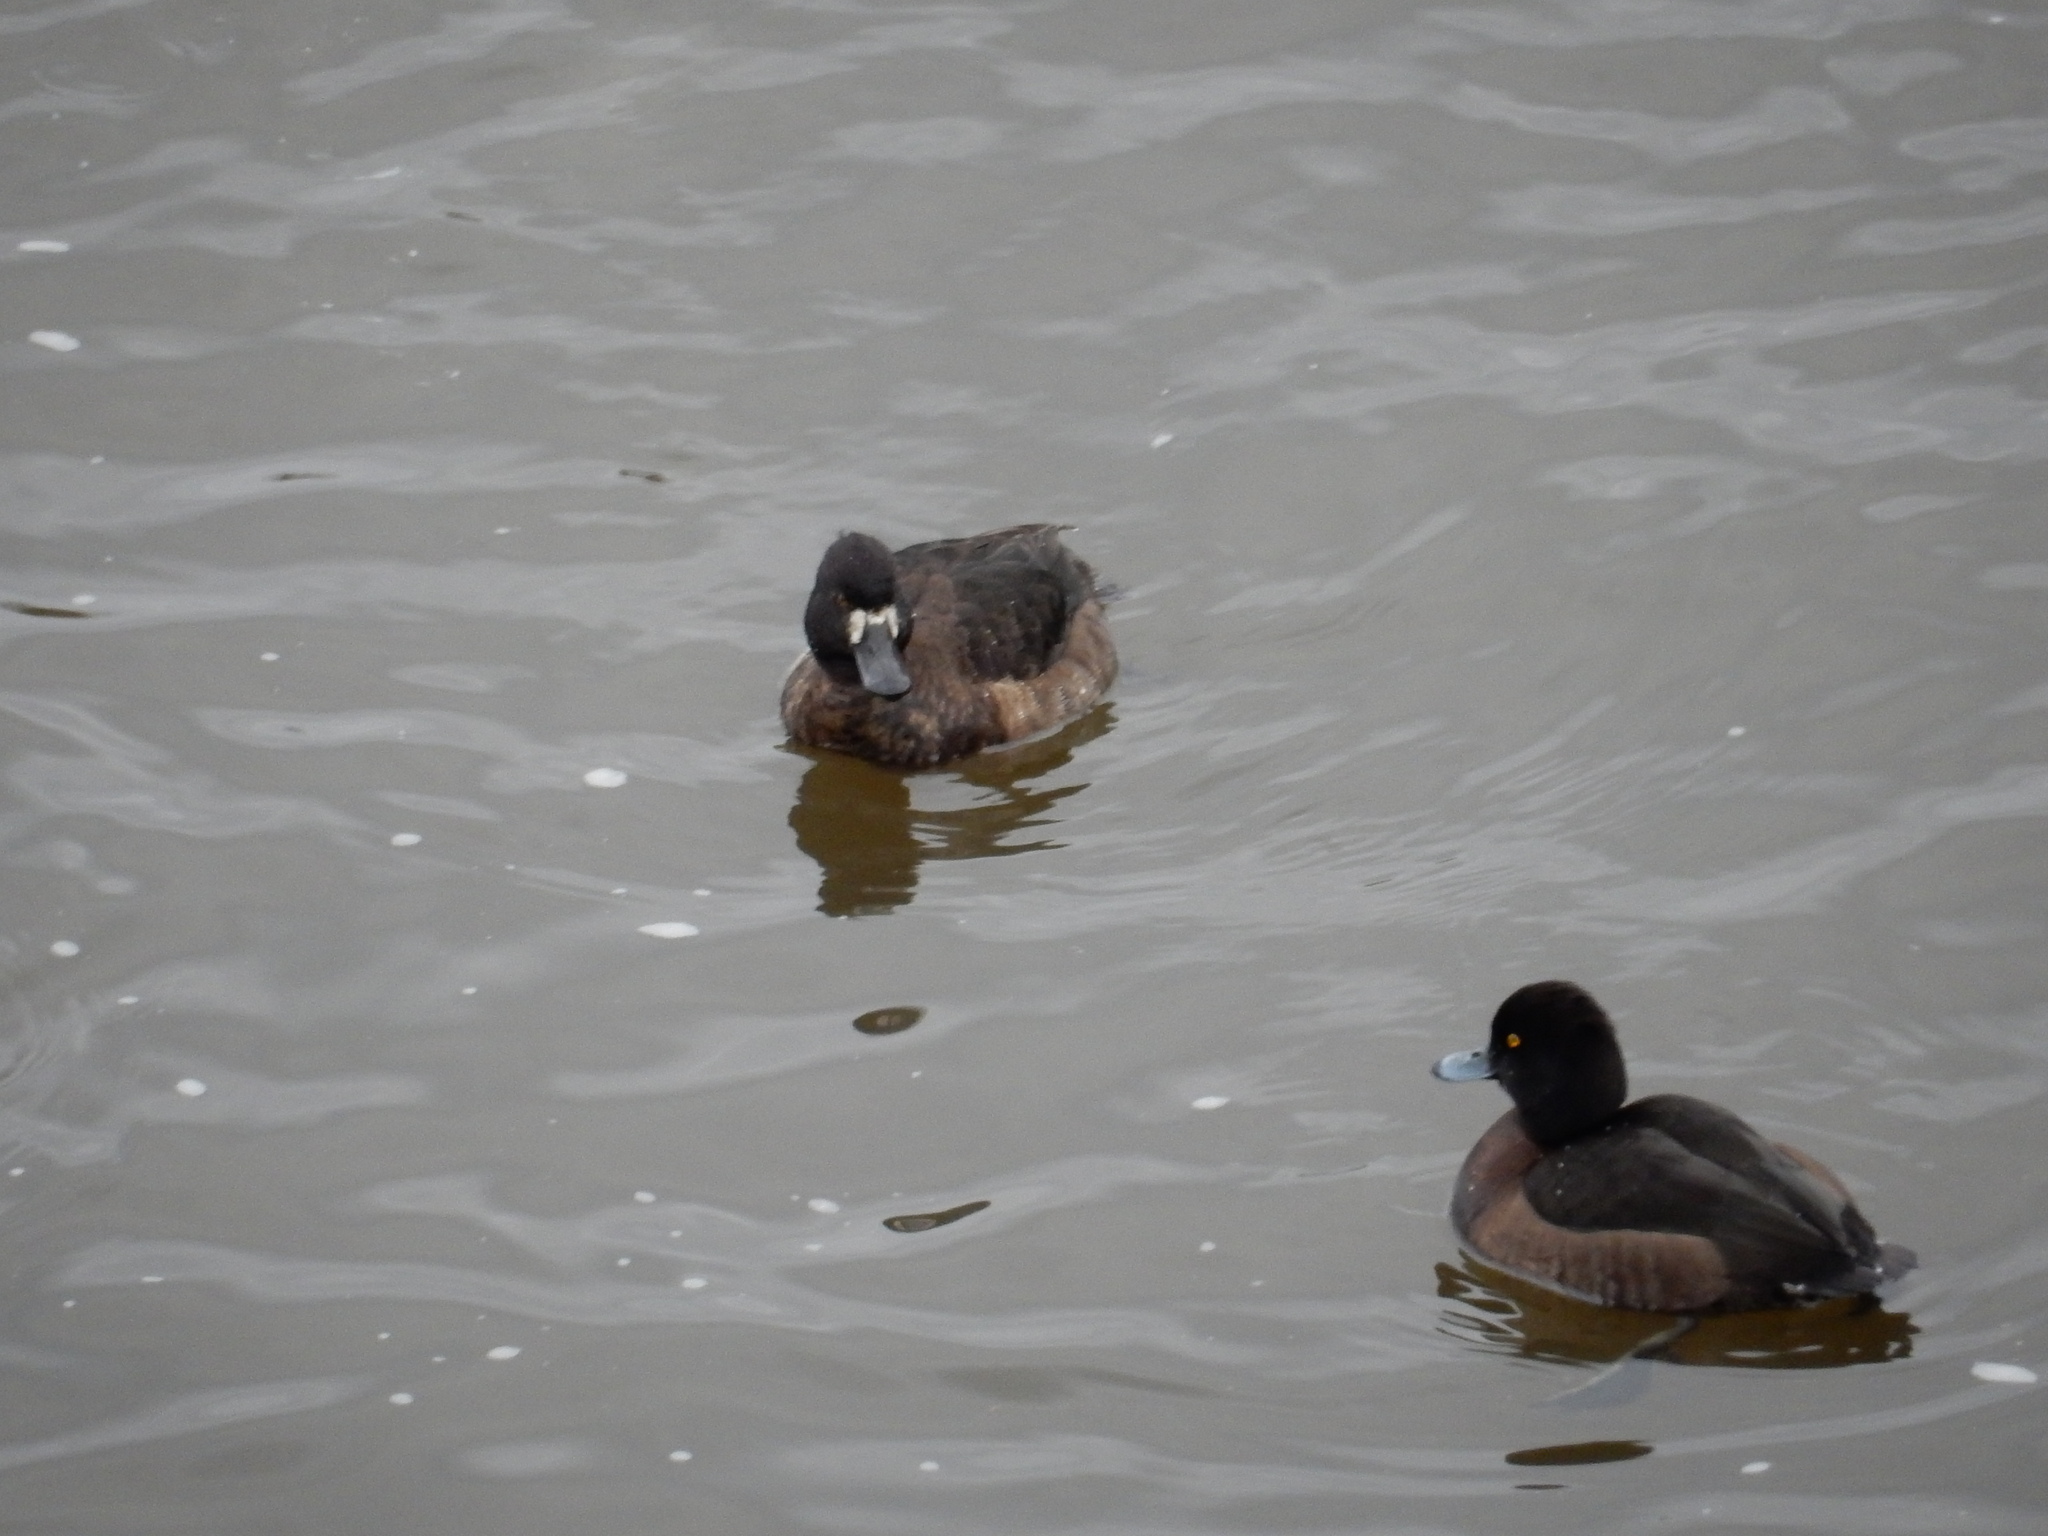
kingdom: Animalia
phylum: Chordata
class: Aves
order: Anseriformes
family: Anatidae
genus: Aythya
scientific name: Aythya marila
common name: Greater scaup
